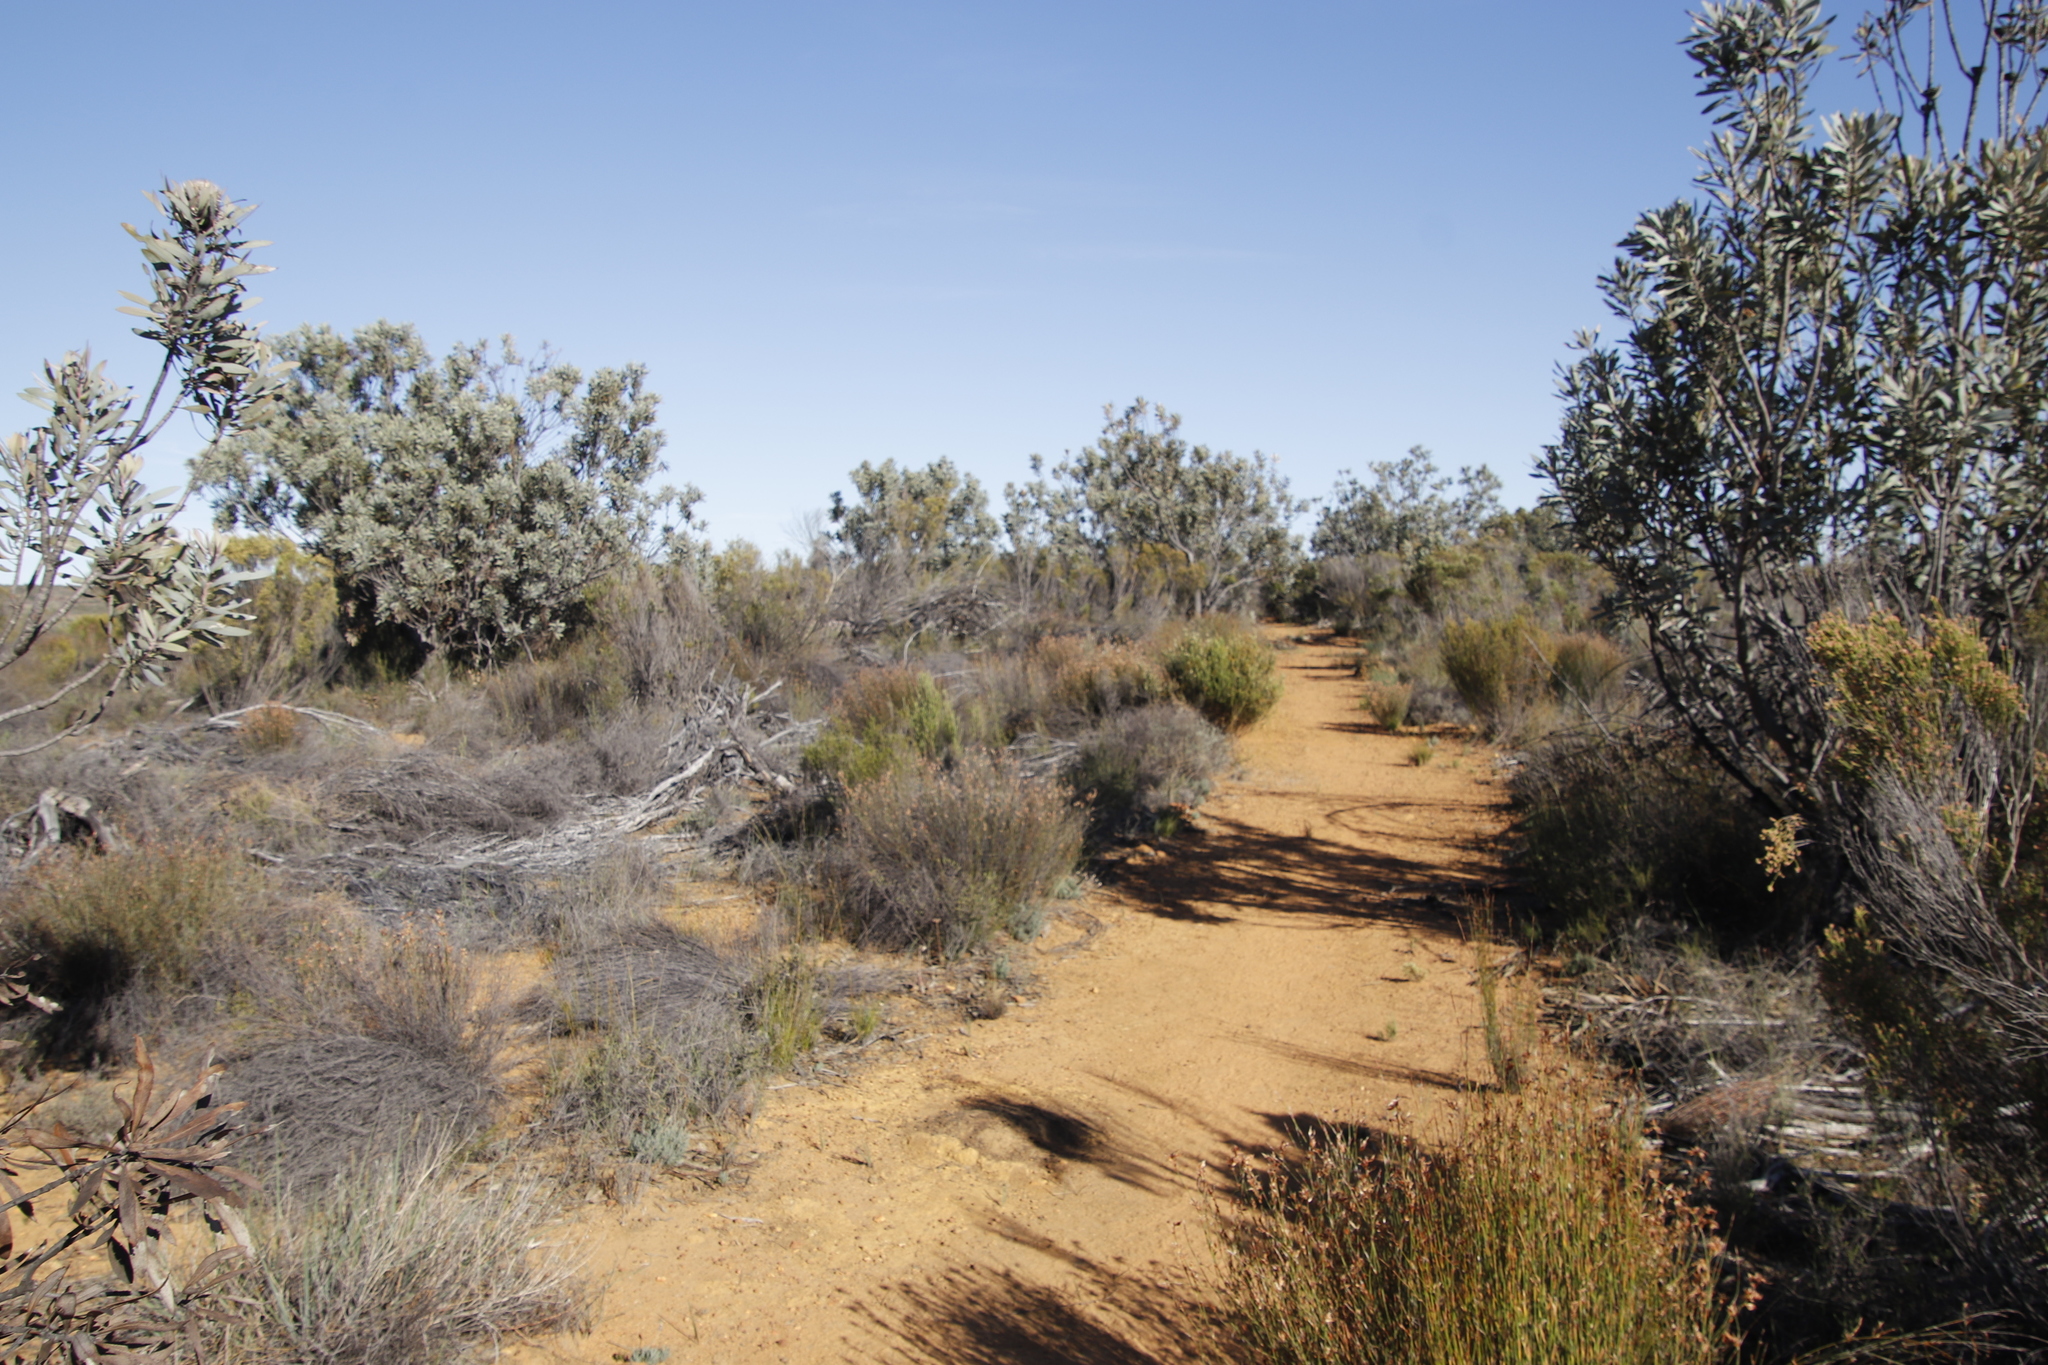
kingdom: Plantae
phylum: Tracheophyta
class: Magnoliopsida
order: Proteales
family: Proteaceae
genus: Protea
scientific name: Protea laurifolia
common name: Grey-leaf sugarbsh
